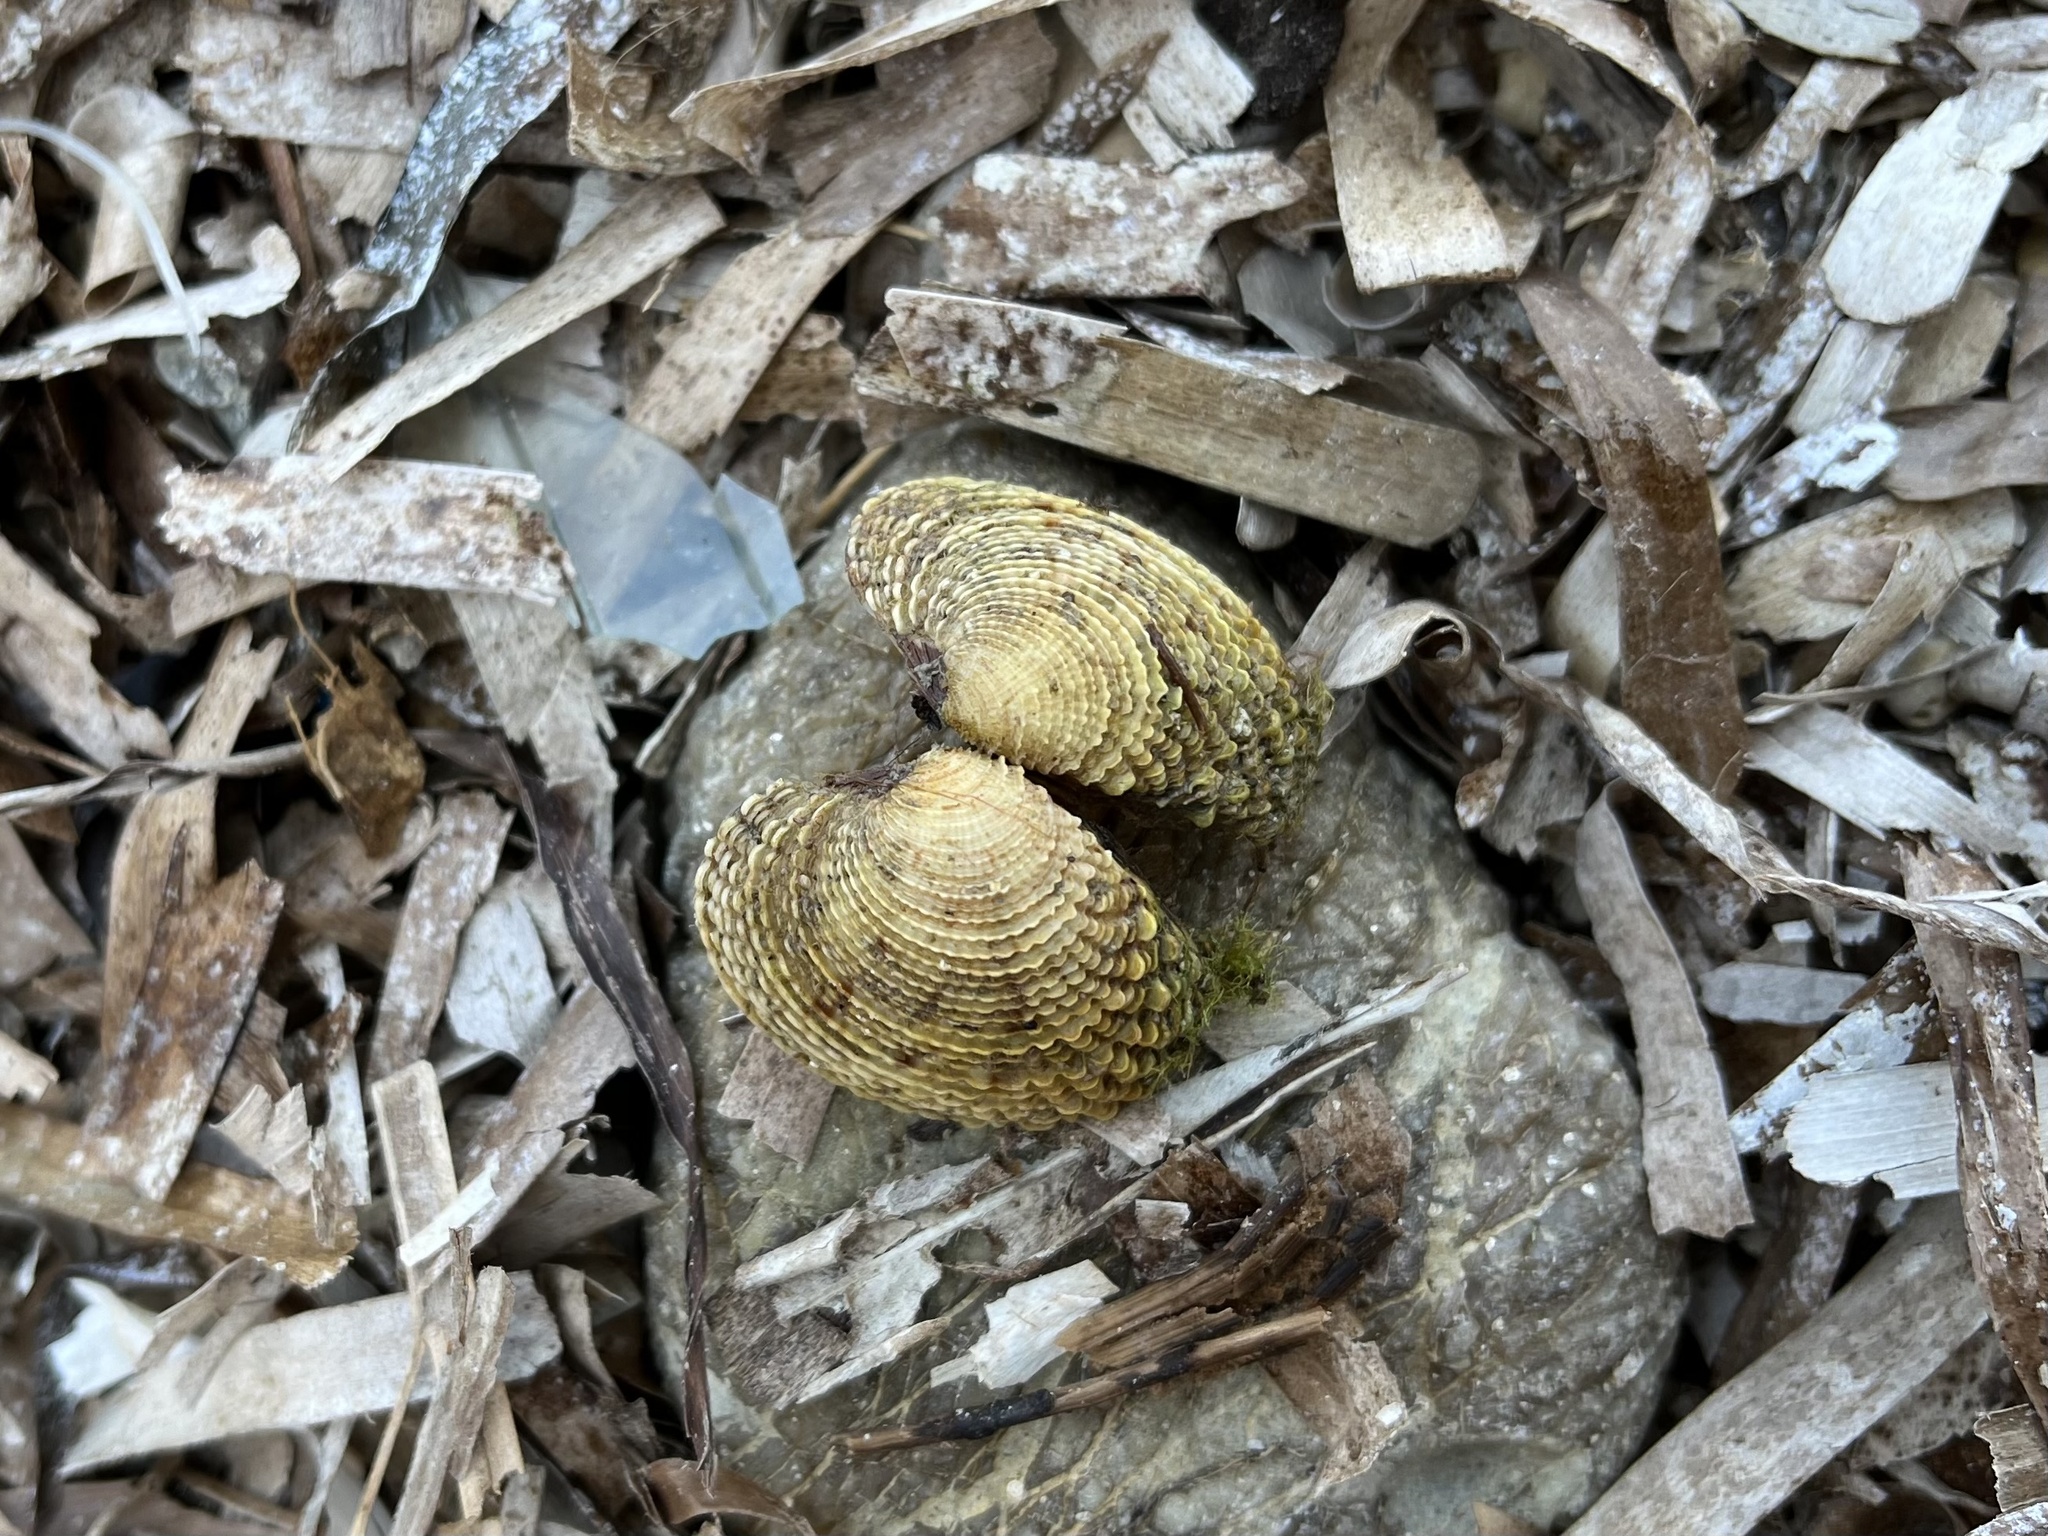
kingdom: Animalia
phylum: Mollusca
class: Bivalvia
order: Venerida
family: Veneridae
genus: Venus
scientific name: Venus verrucosa
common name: Warty venus
